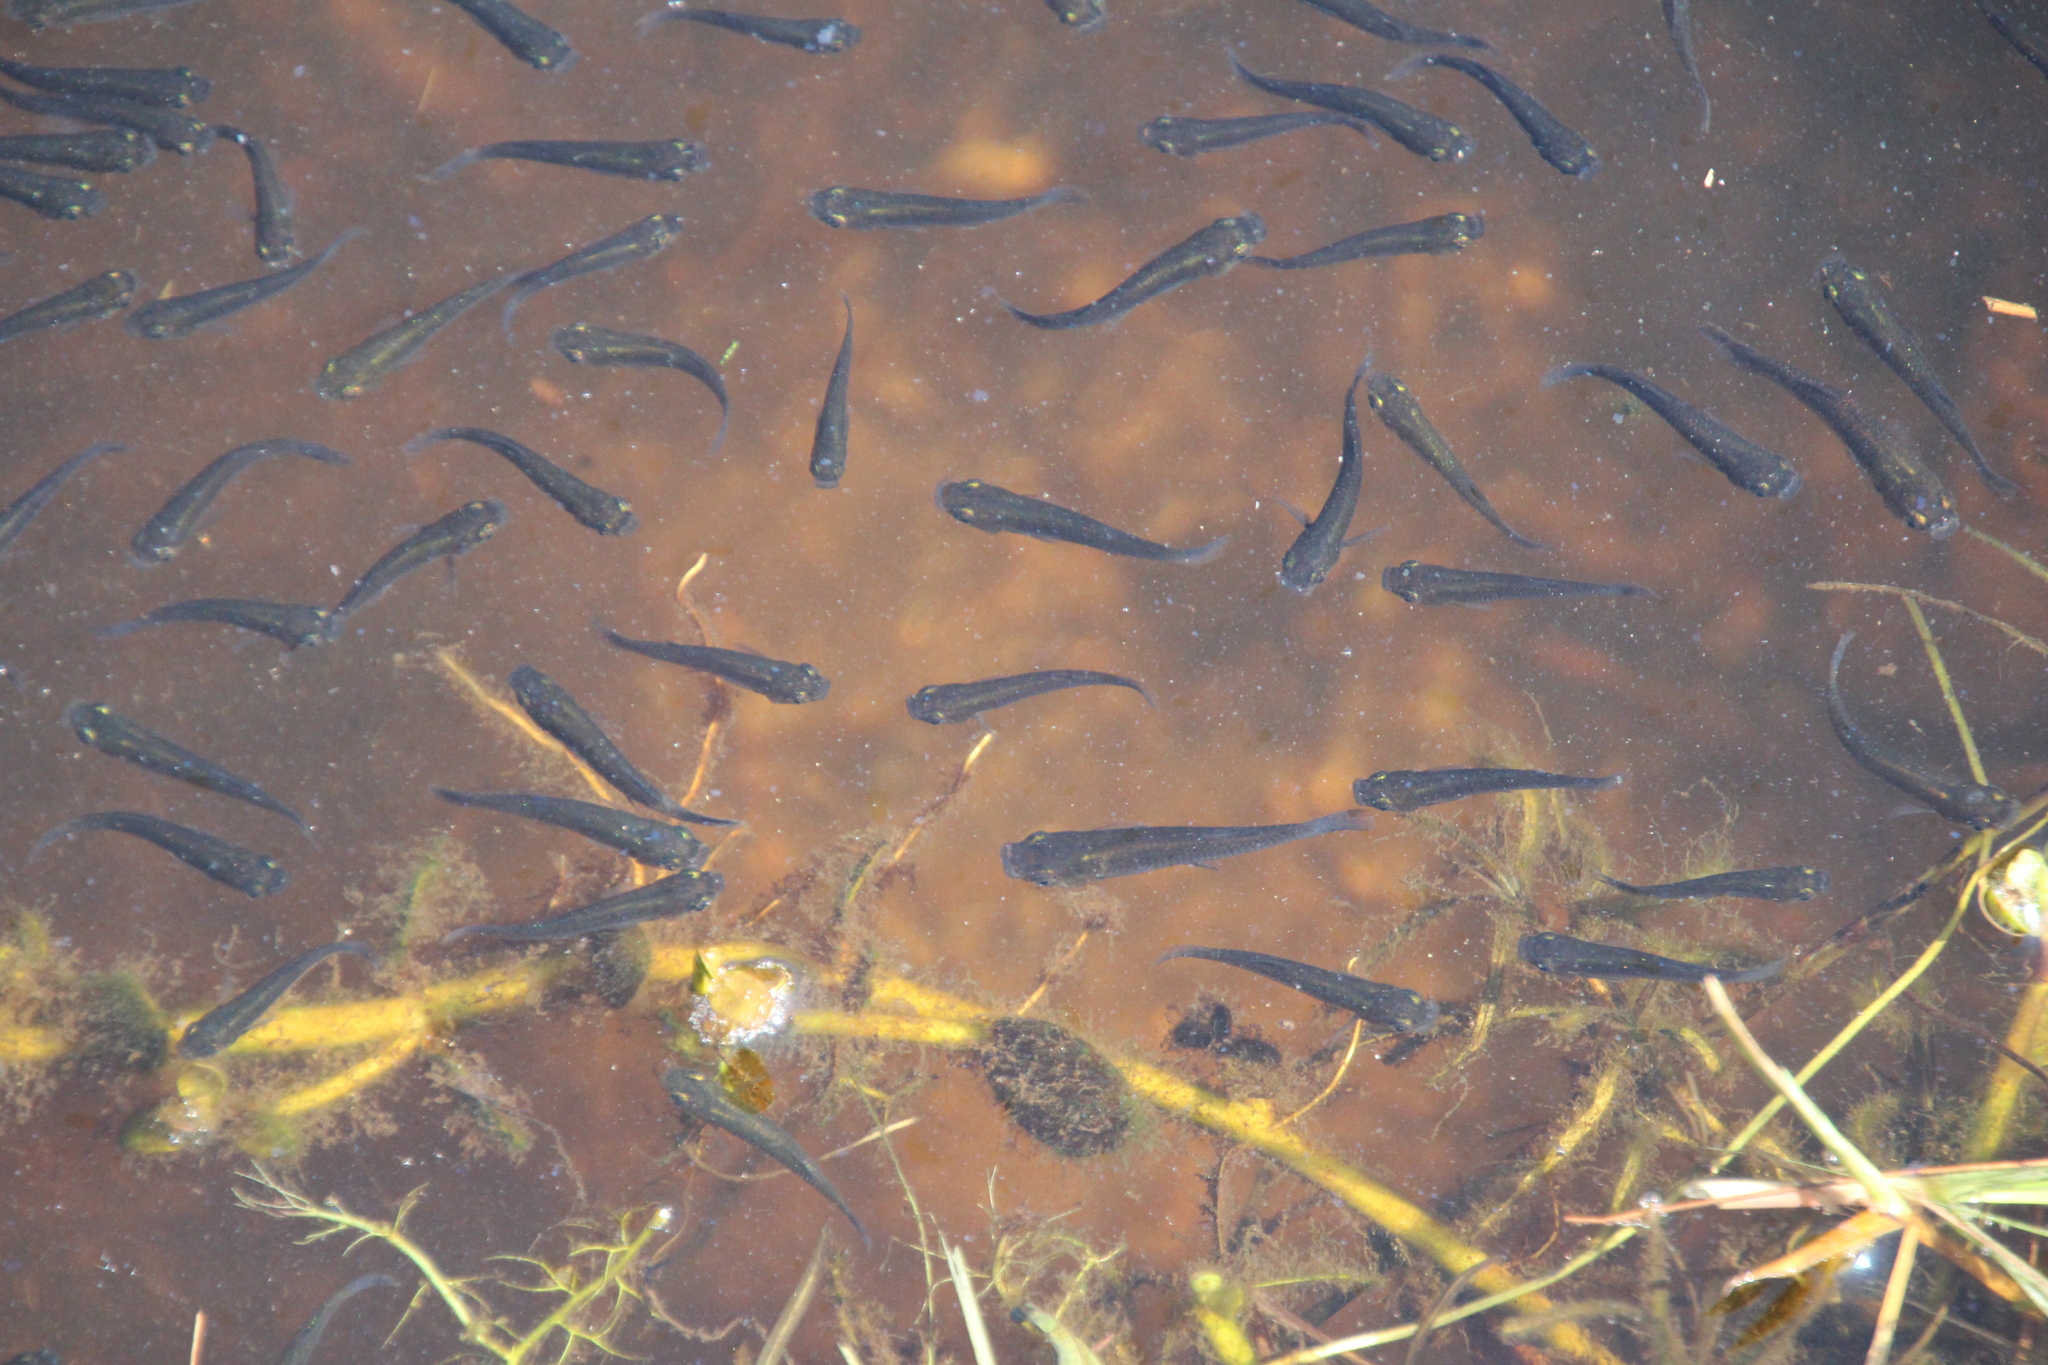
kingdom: Animalia
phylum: Chordata
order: Cyprinodontiformes
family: Poeciliidae
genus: Gambusia
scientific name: Gambusia holbrooki
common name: Eastern mosquitofish
